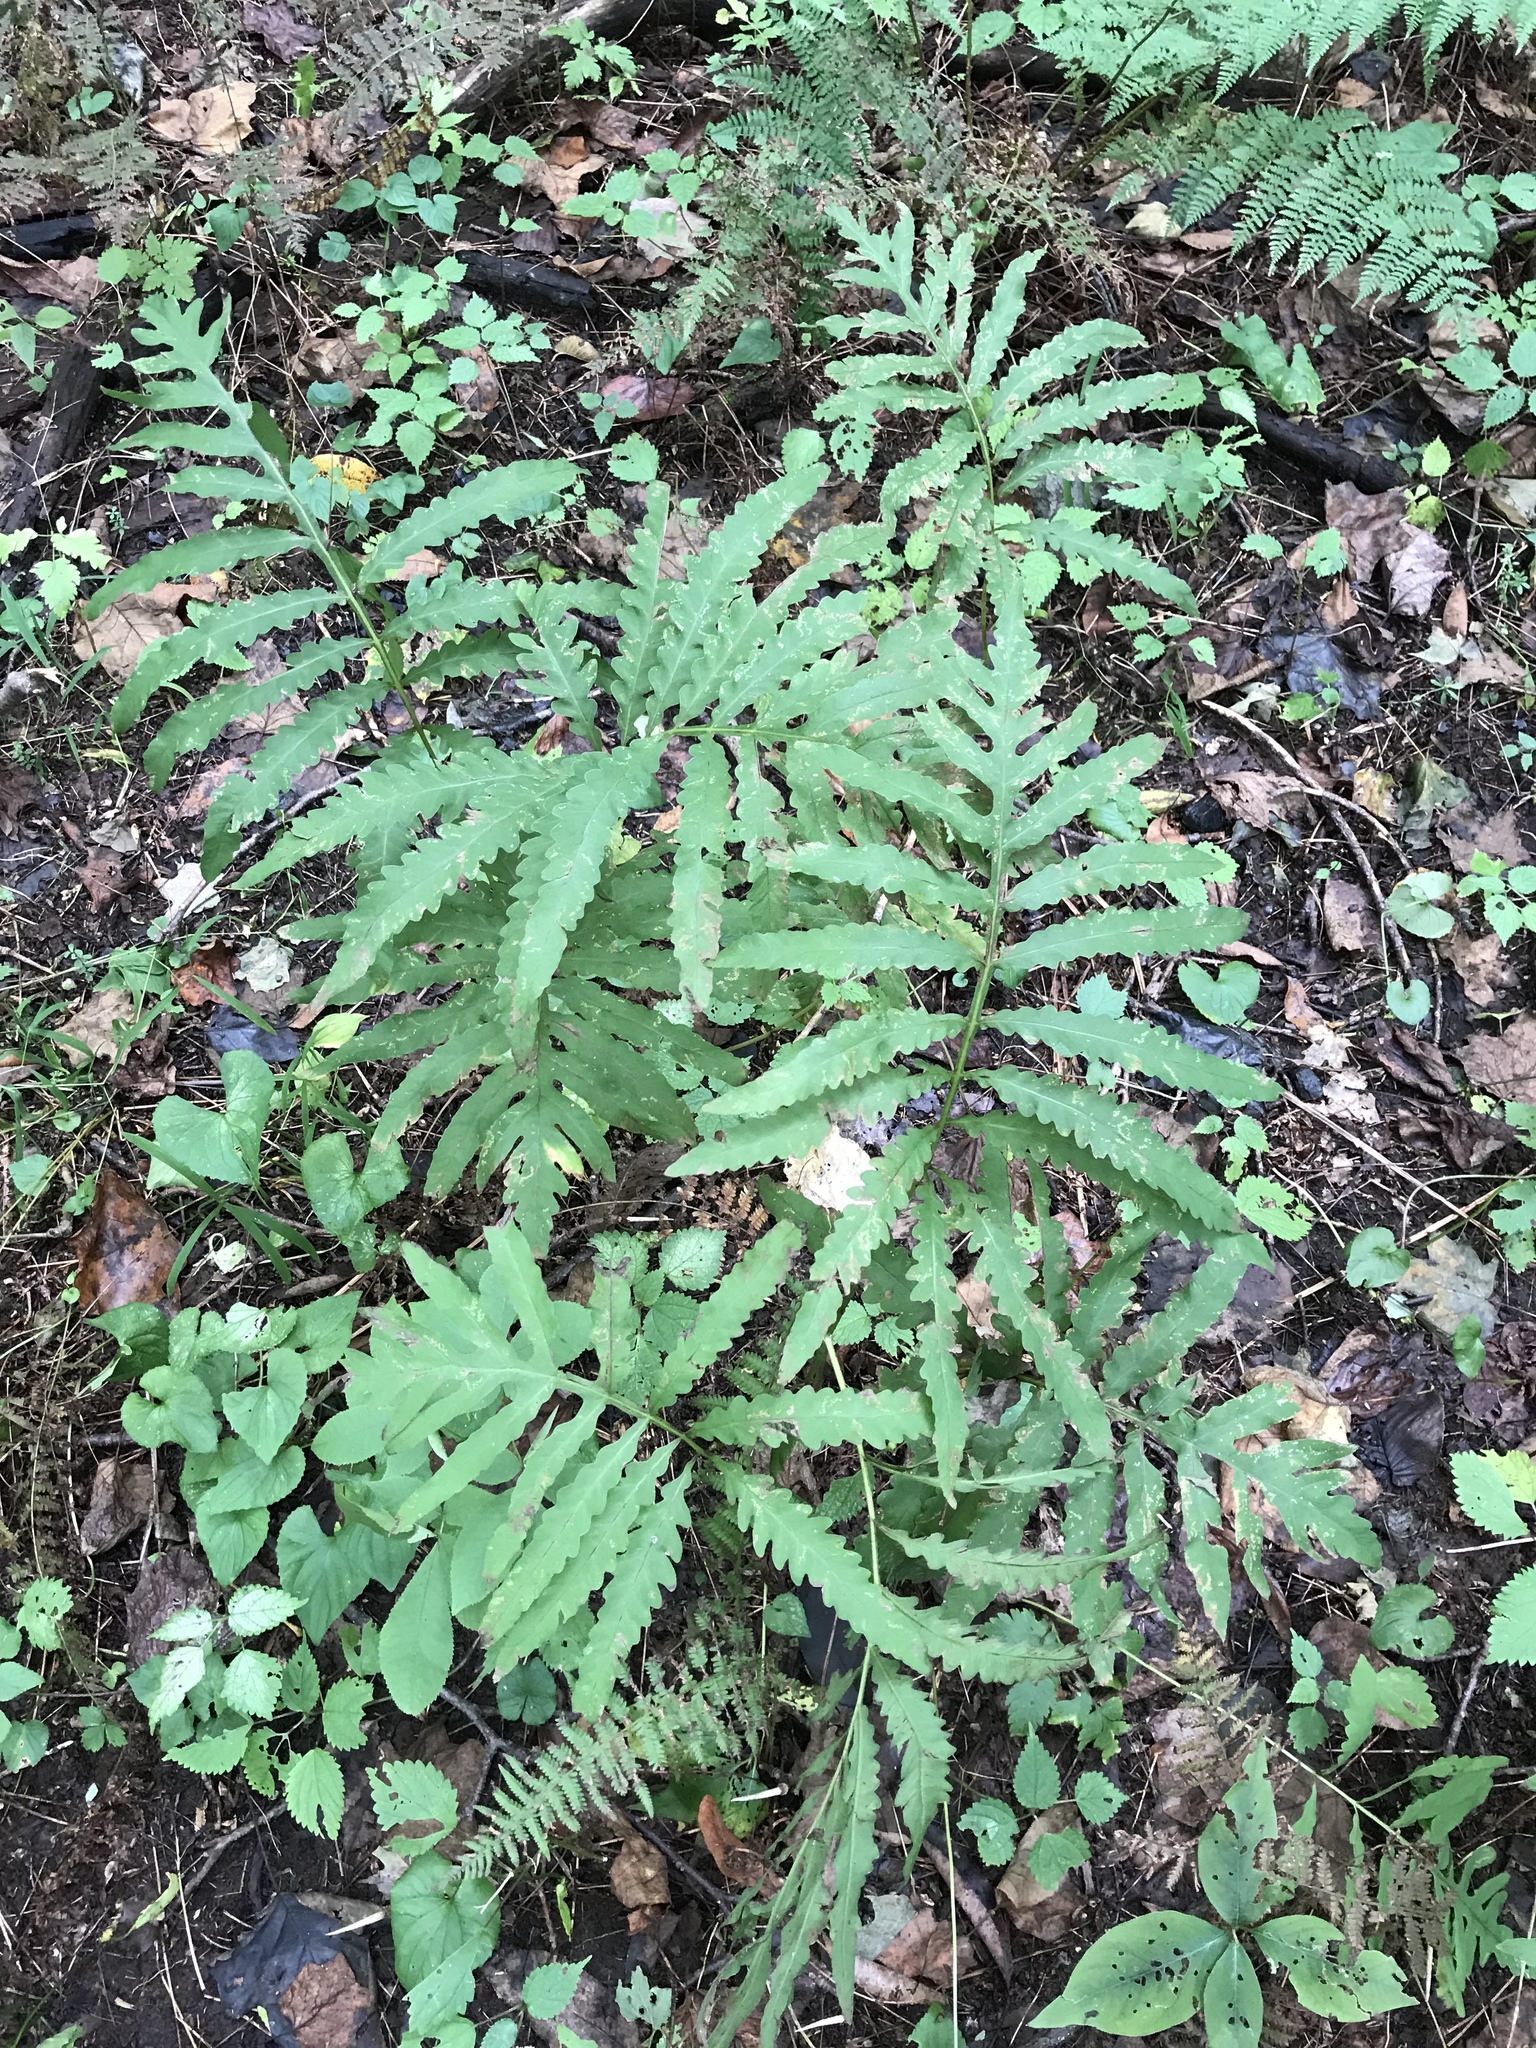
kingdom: Plantae
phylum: Tracheophyta
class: Polypodiopsida
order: Polypodiales
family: Onocleaceae
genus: Onoclea
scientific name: Onoclea sensibilis
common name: Sensitive fern
